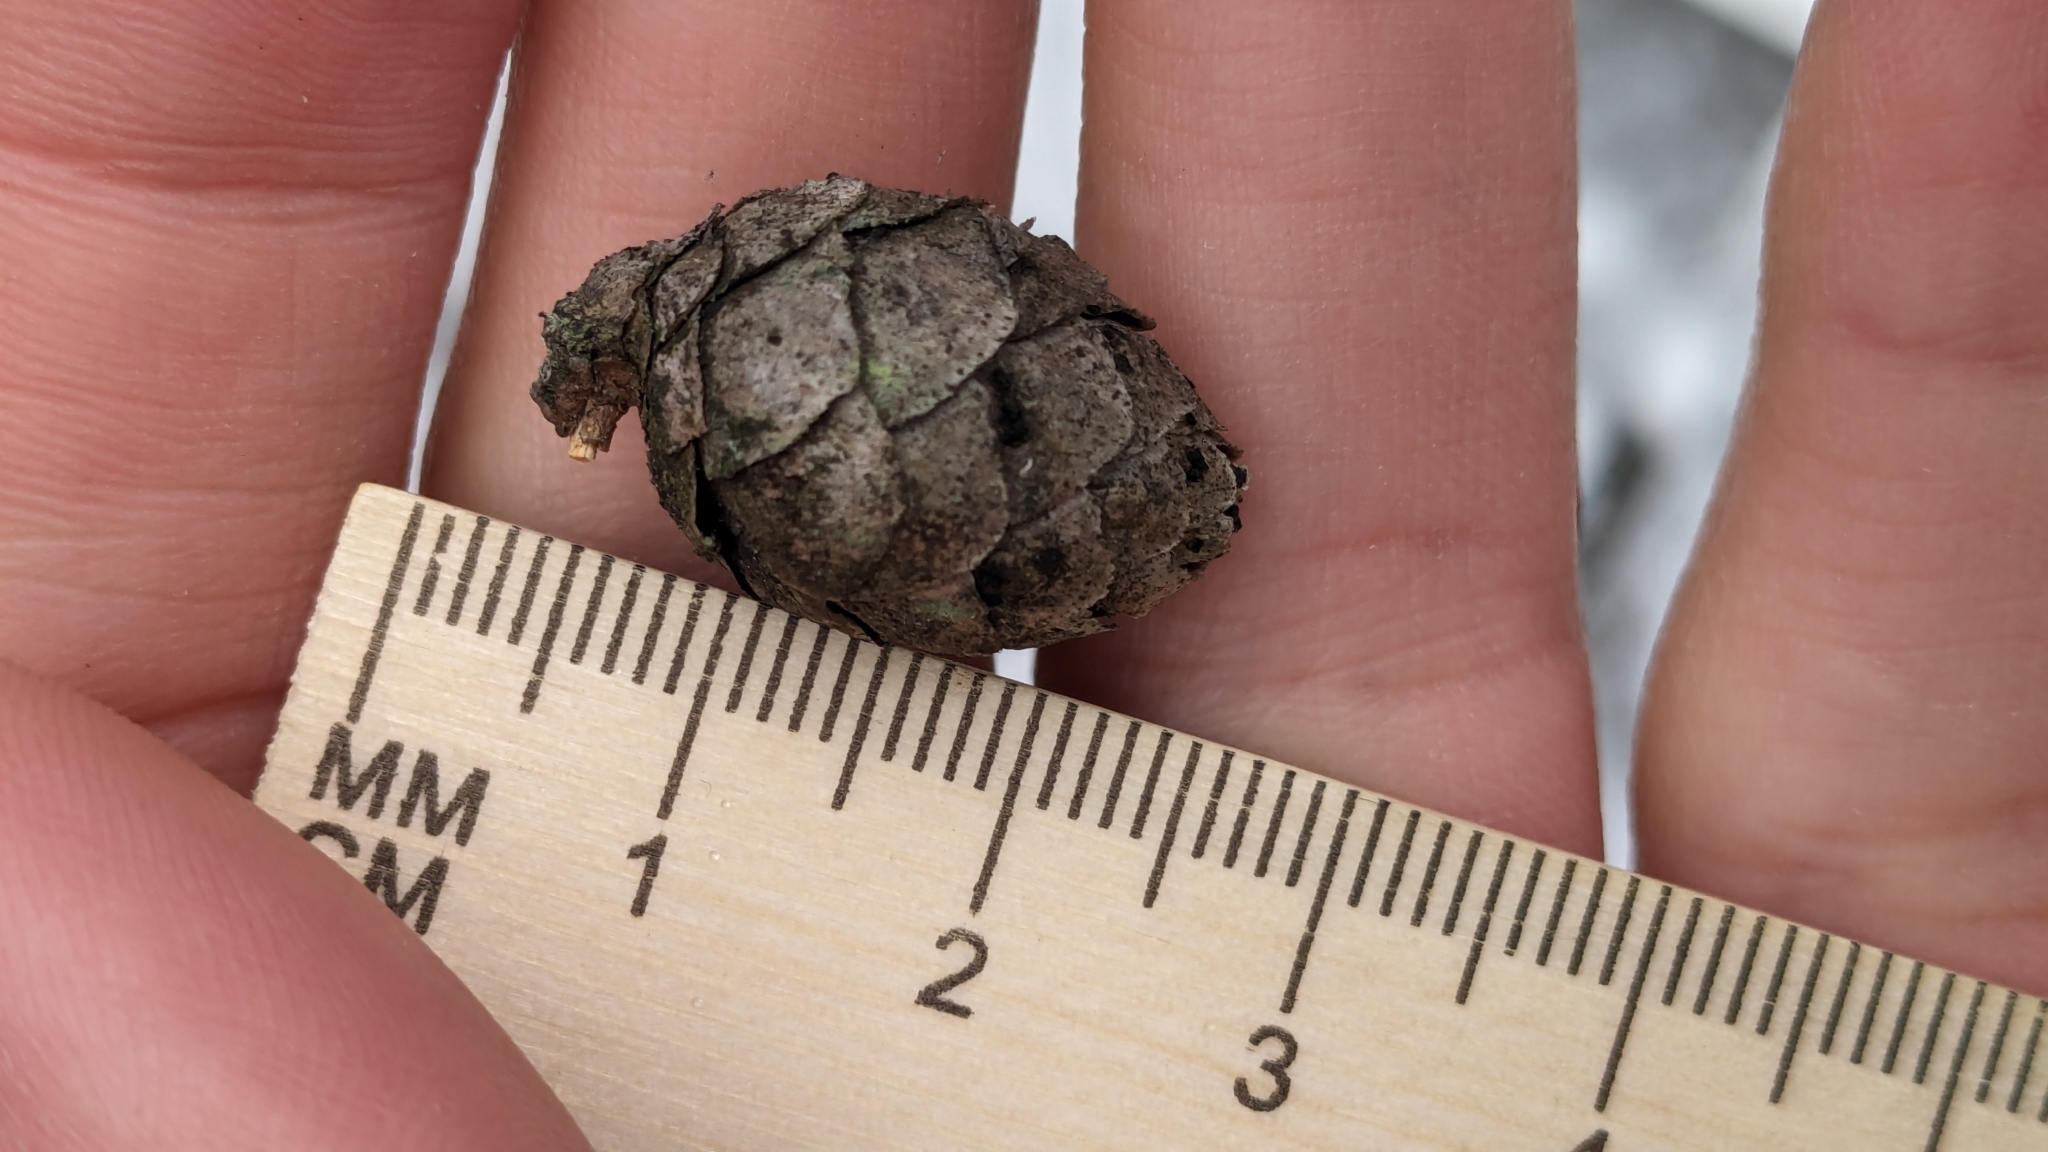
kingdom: Plantae
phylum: Tracheophyta
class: Pinopsida
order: Pinales
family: Pinaceae
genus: Picea
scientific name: Picea mariana
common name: Black spruce
